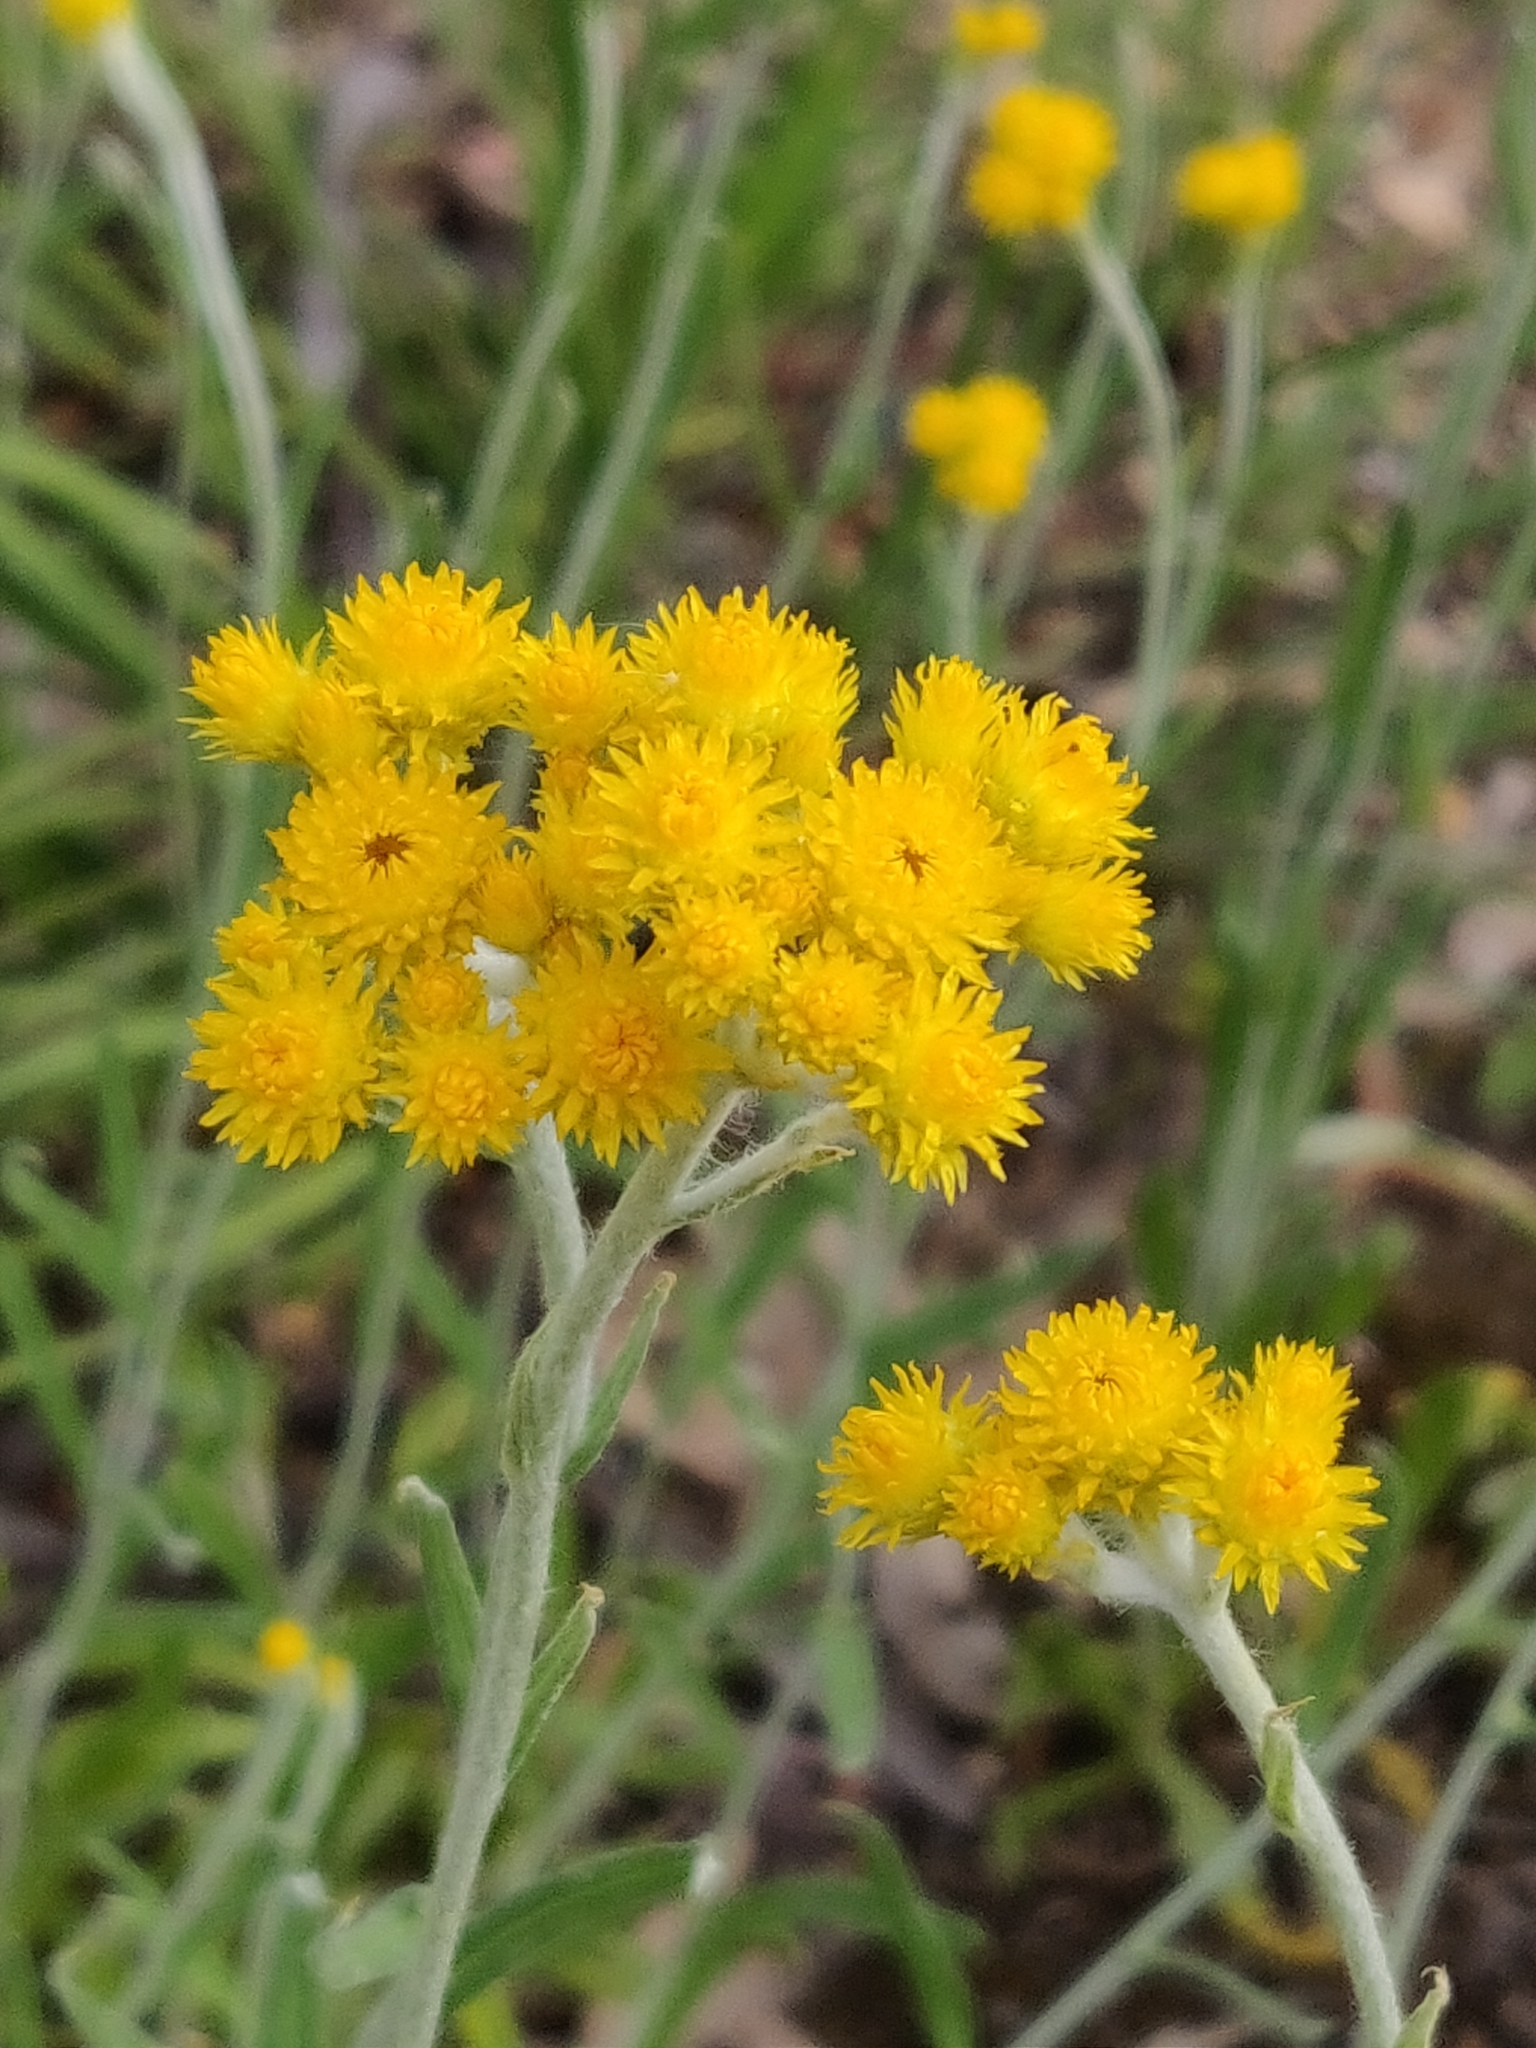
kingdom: Plantae
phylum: Tracheophyta
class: Magnoliopsida
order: Asterales
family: Asteraceae
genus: Chrysocephalum
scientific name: Chrysocephalum apiculatum
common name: Common everlasting
